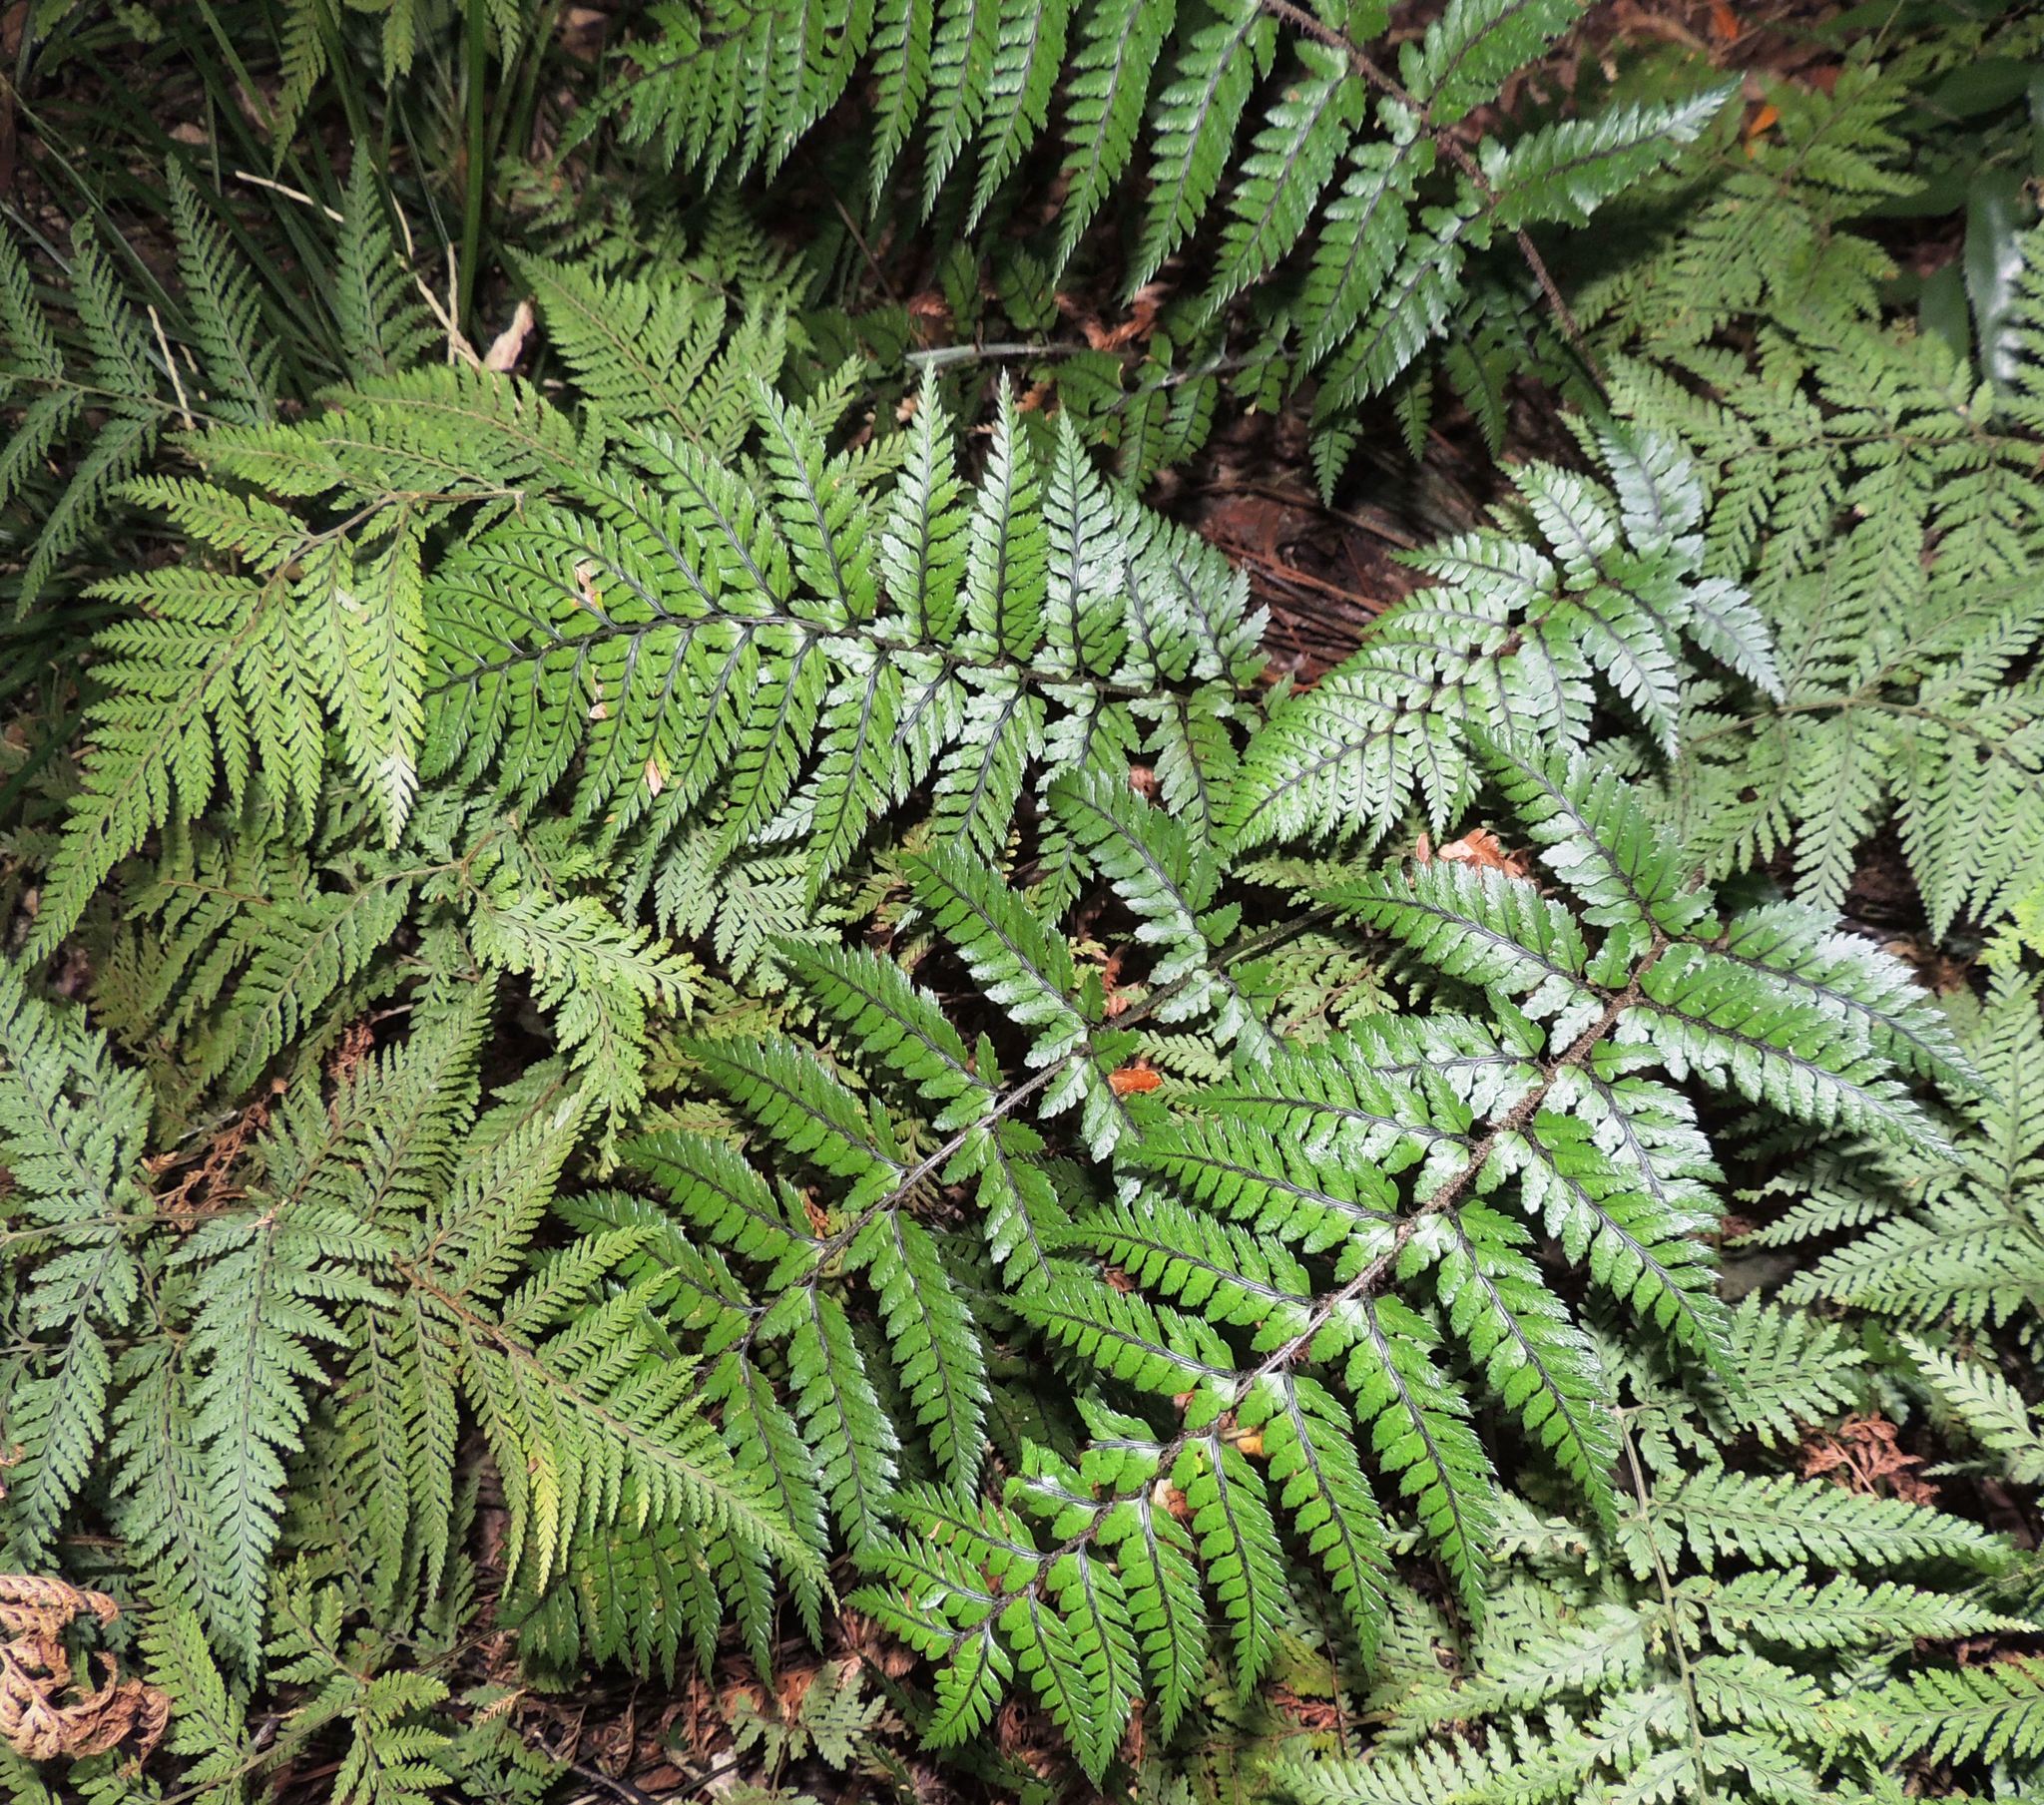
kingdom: Plantae
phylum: Tracheophyta
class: Polypodiopsida
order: Polypodiales
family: Dryopteridaceae
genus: Polystichum
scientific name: Polystichum neozelandicum
